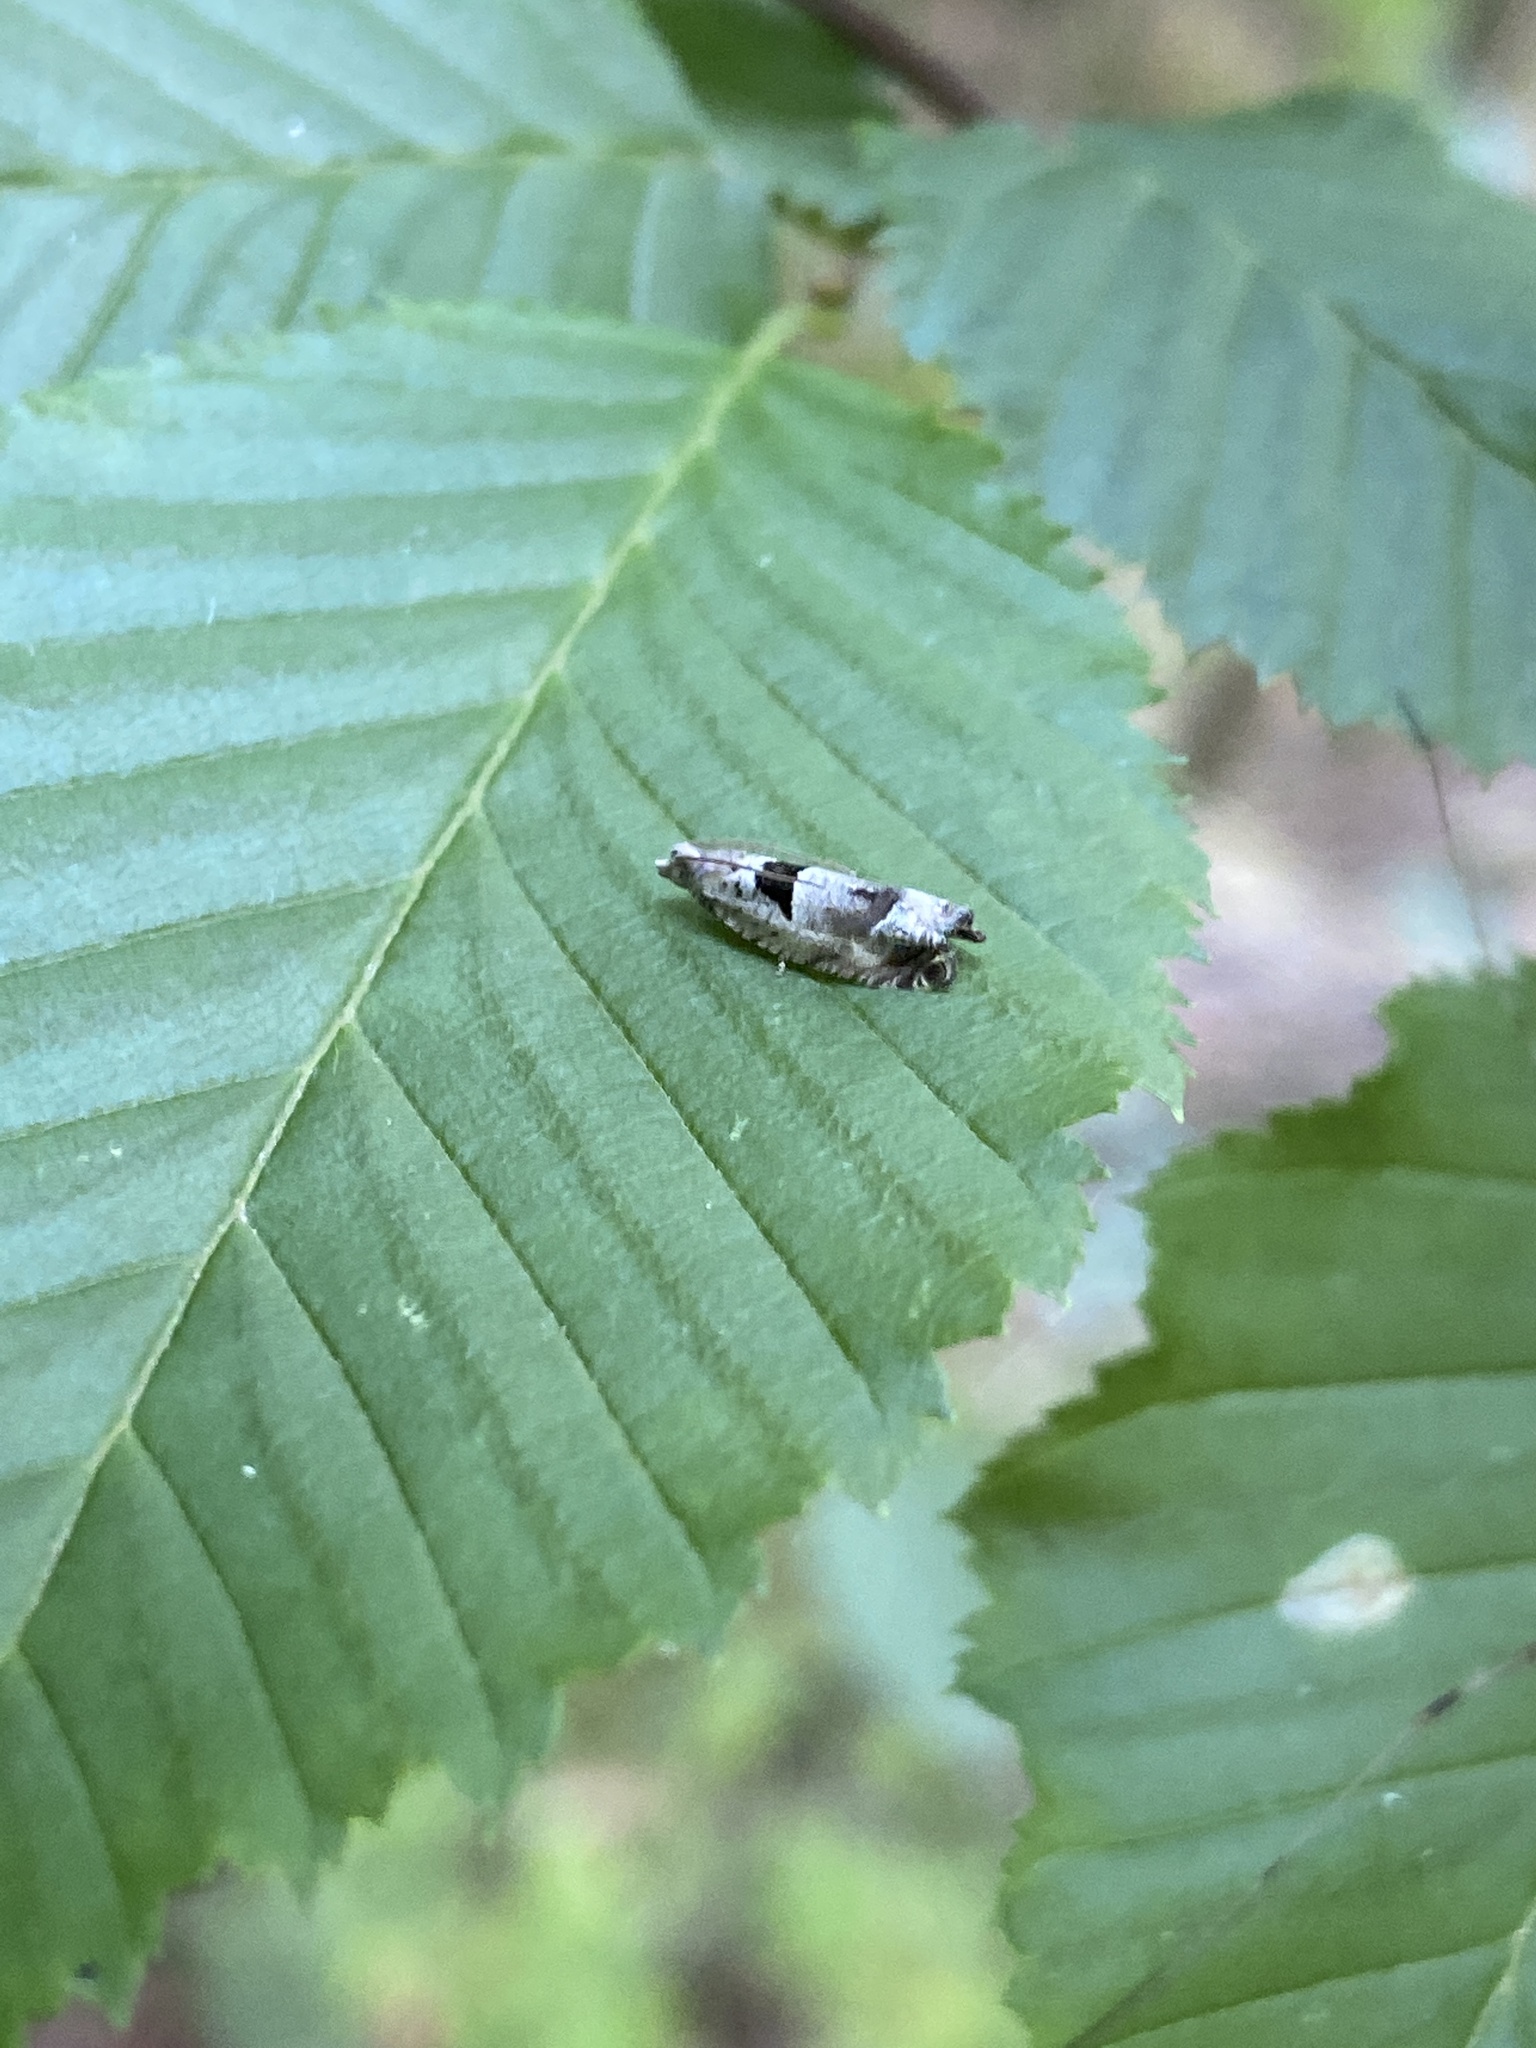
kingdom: Animalia
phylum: Arthropoda
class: Insecta
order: Lepidoptera
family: Tortricidae
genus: Epinotia
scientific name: Epinotia ramella
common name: Small birch bell
